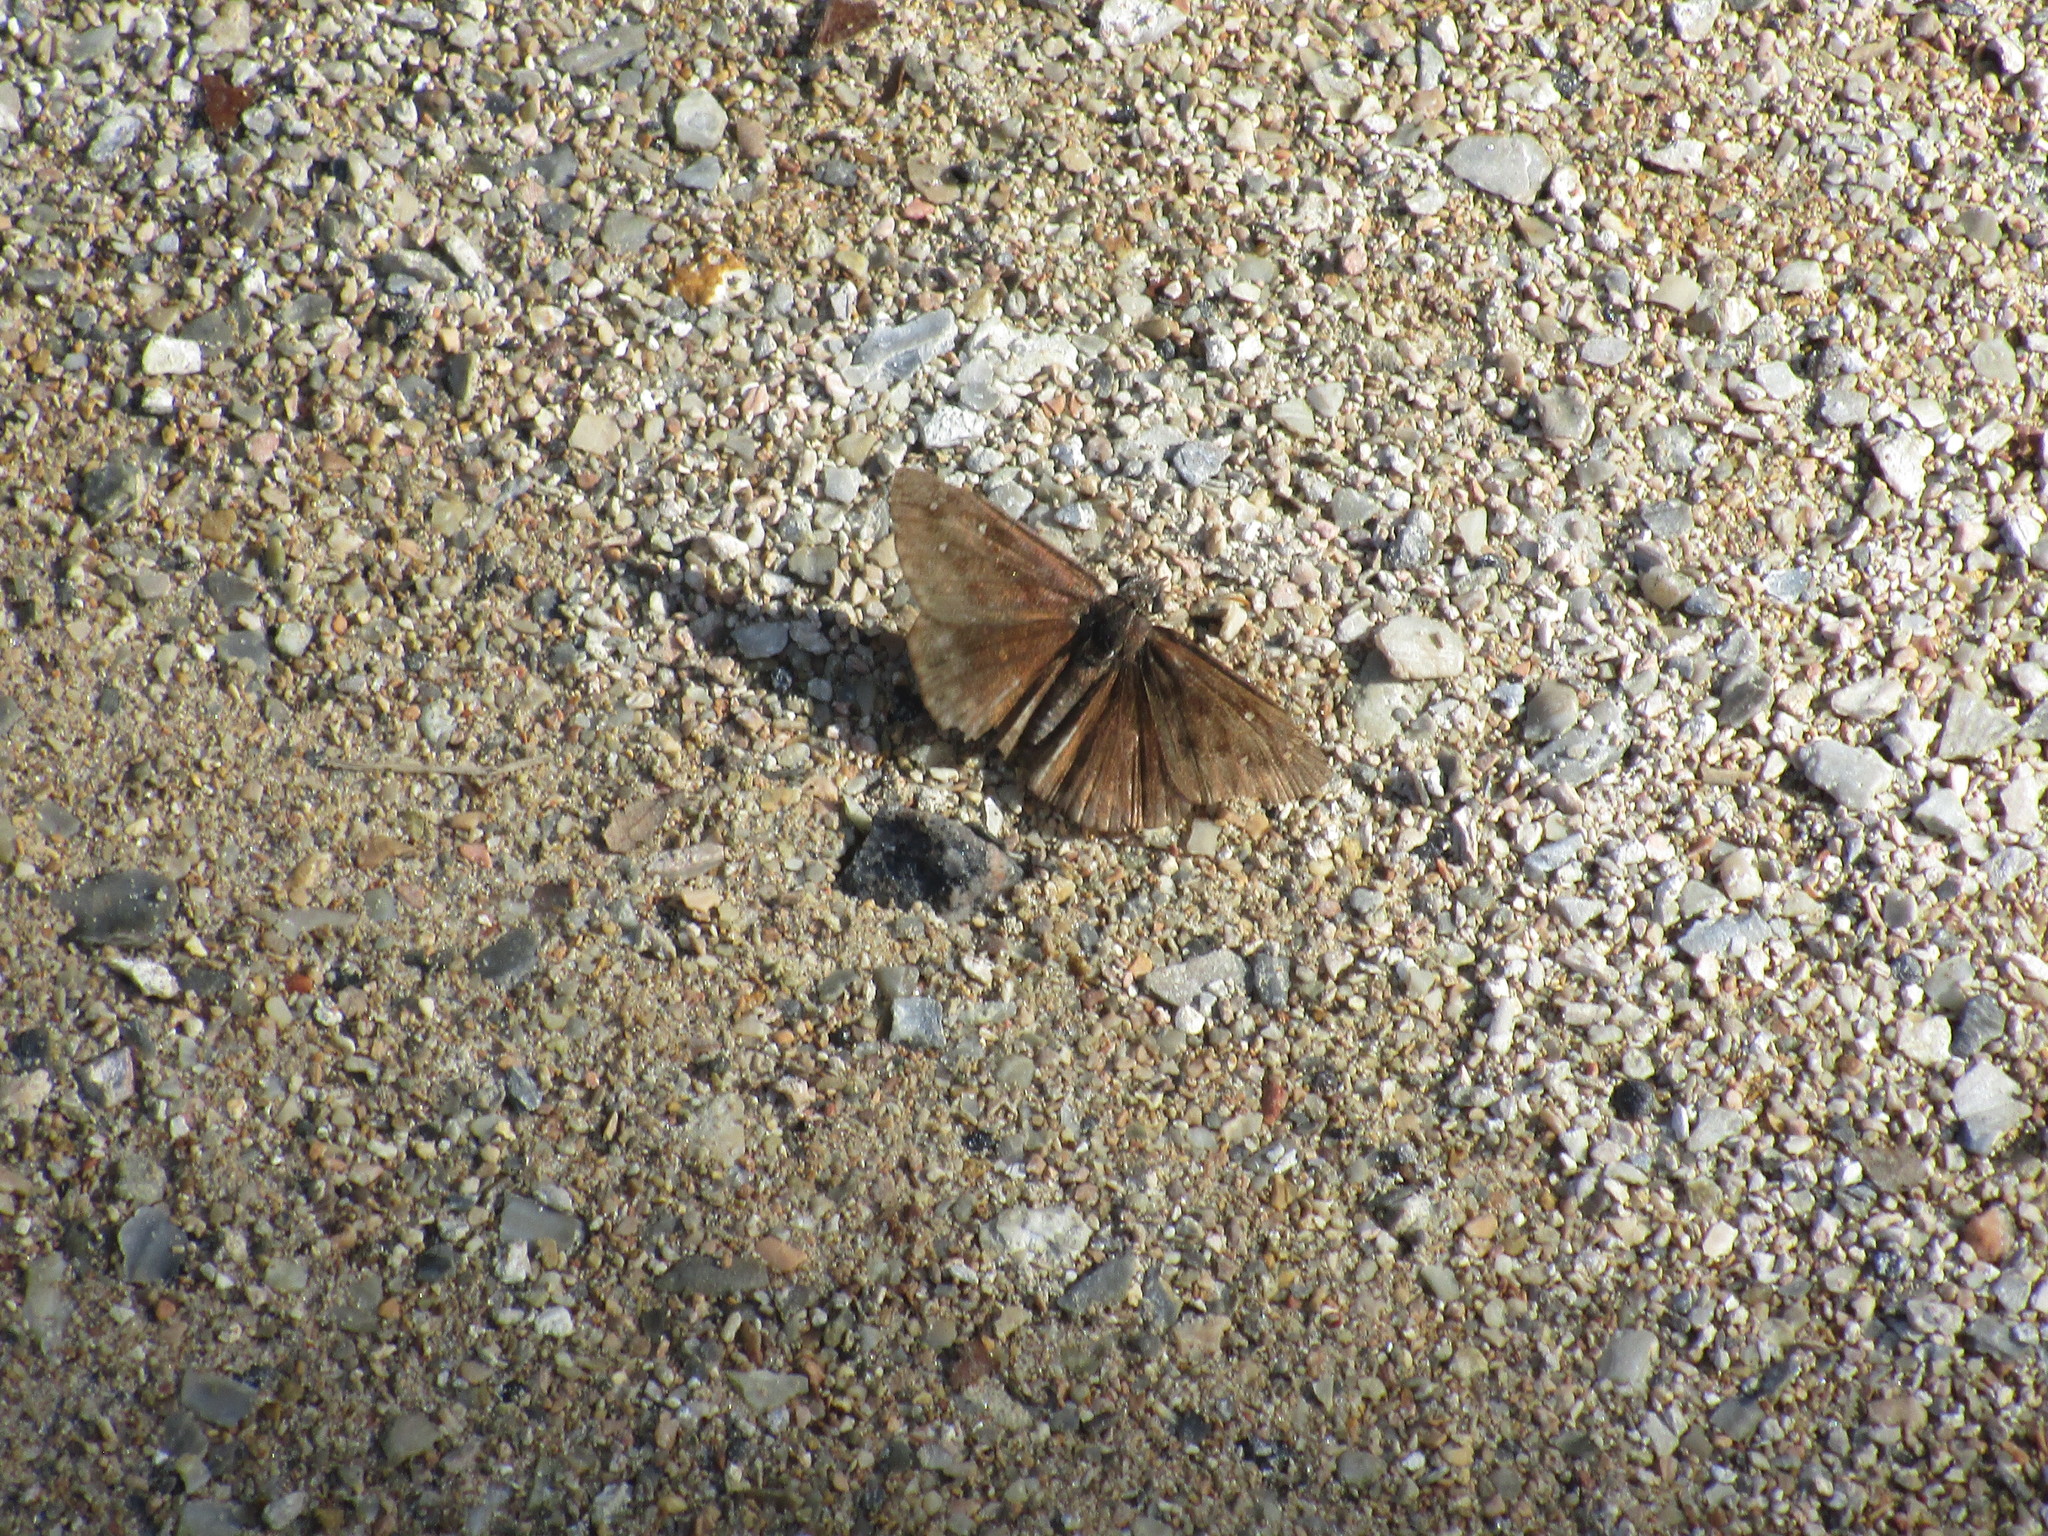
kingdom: Animalia
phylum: Arthropoda
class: Insecta
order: Lepidoptera
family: Hesperiidae
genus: Erynnis
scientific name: Erynnis horatius
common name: Horace's duskywing
